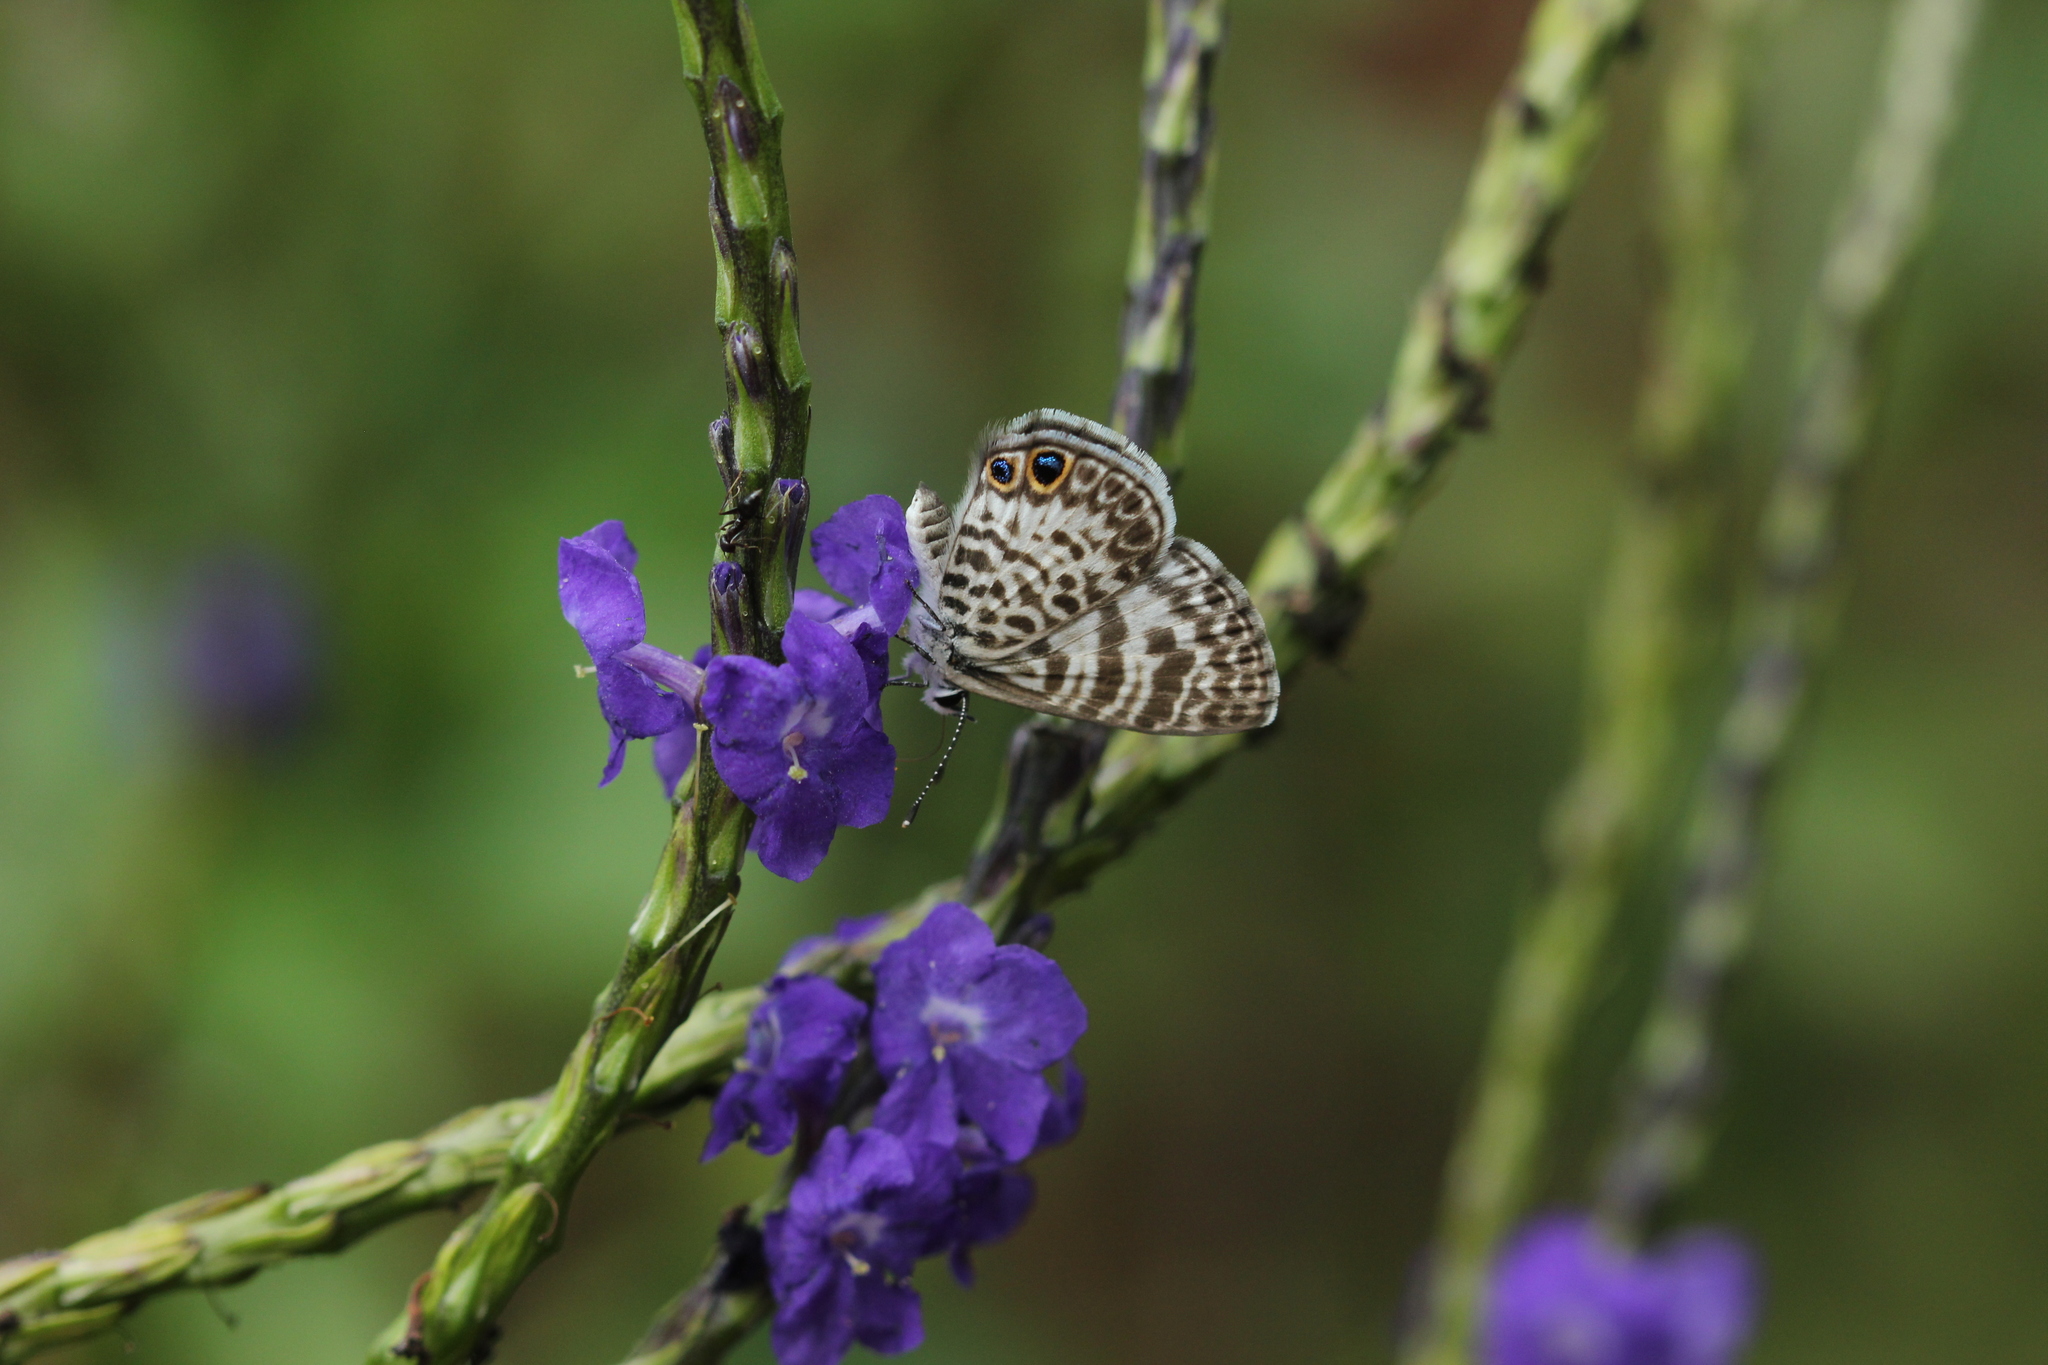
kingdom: Animalia
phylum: Arthropoda
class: Insecta
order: Lepidoptera
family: Lycaenidae
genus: Leptotes
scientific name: Leptotes cassius
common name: Cassius blue
